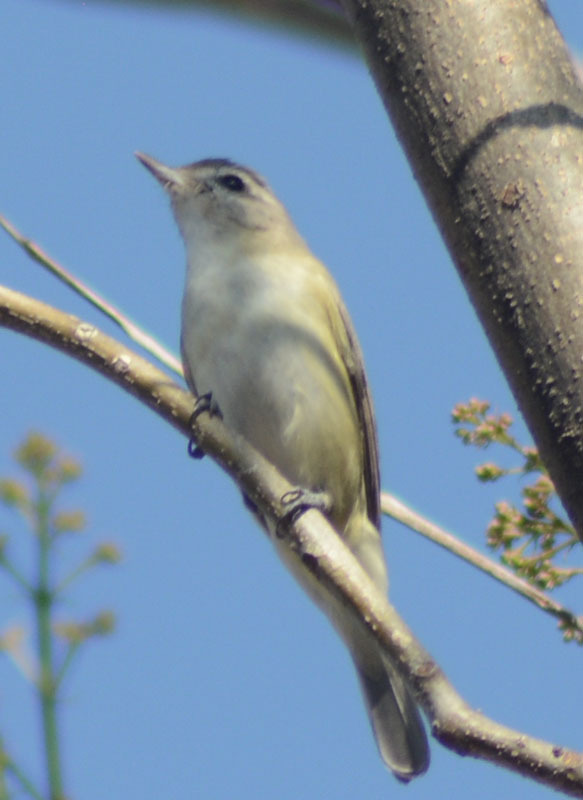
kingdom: Animalia
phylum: Chordata
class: Aves
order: Passeriformes
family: Vireonidae
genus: Vireo
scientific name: Vireo gilvus
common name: Warbling vireo
